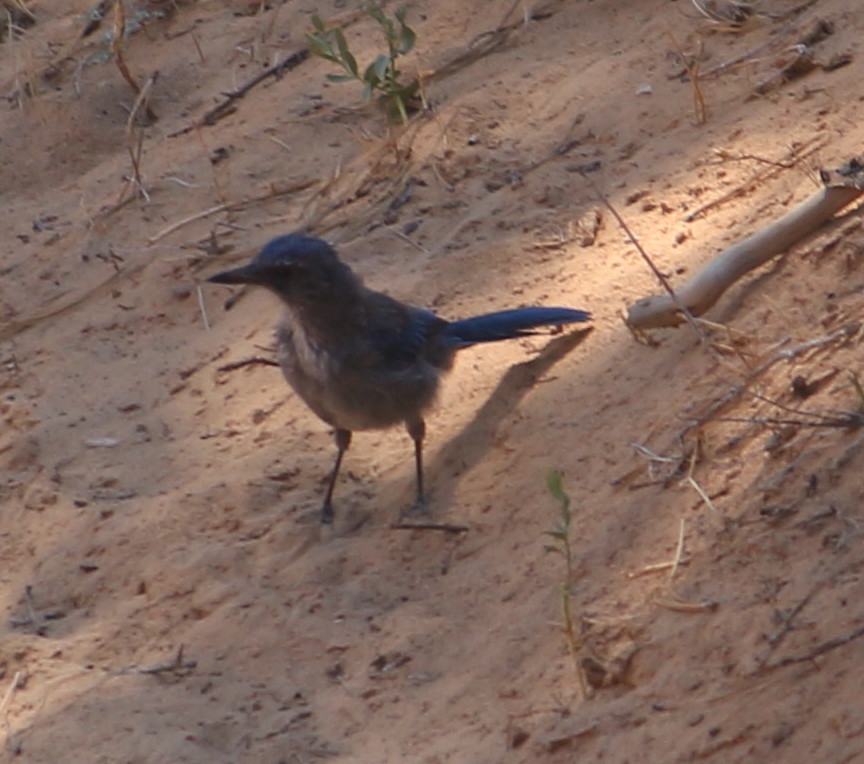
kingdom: Animalia
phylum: Chordata
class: Aves
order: Passeriformes
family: Corvidae
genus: Aphelocoma
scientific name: Aphelocoma woodhouseii
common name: Woodhouse's scrub-jay
